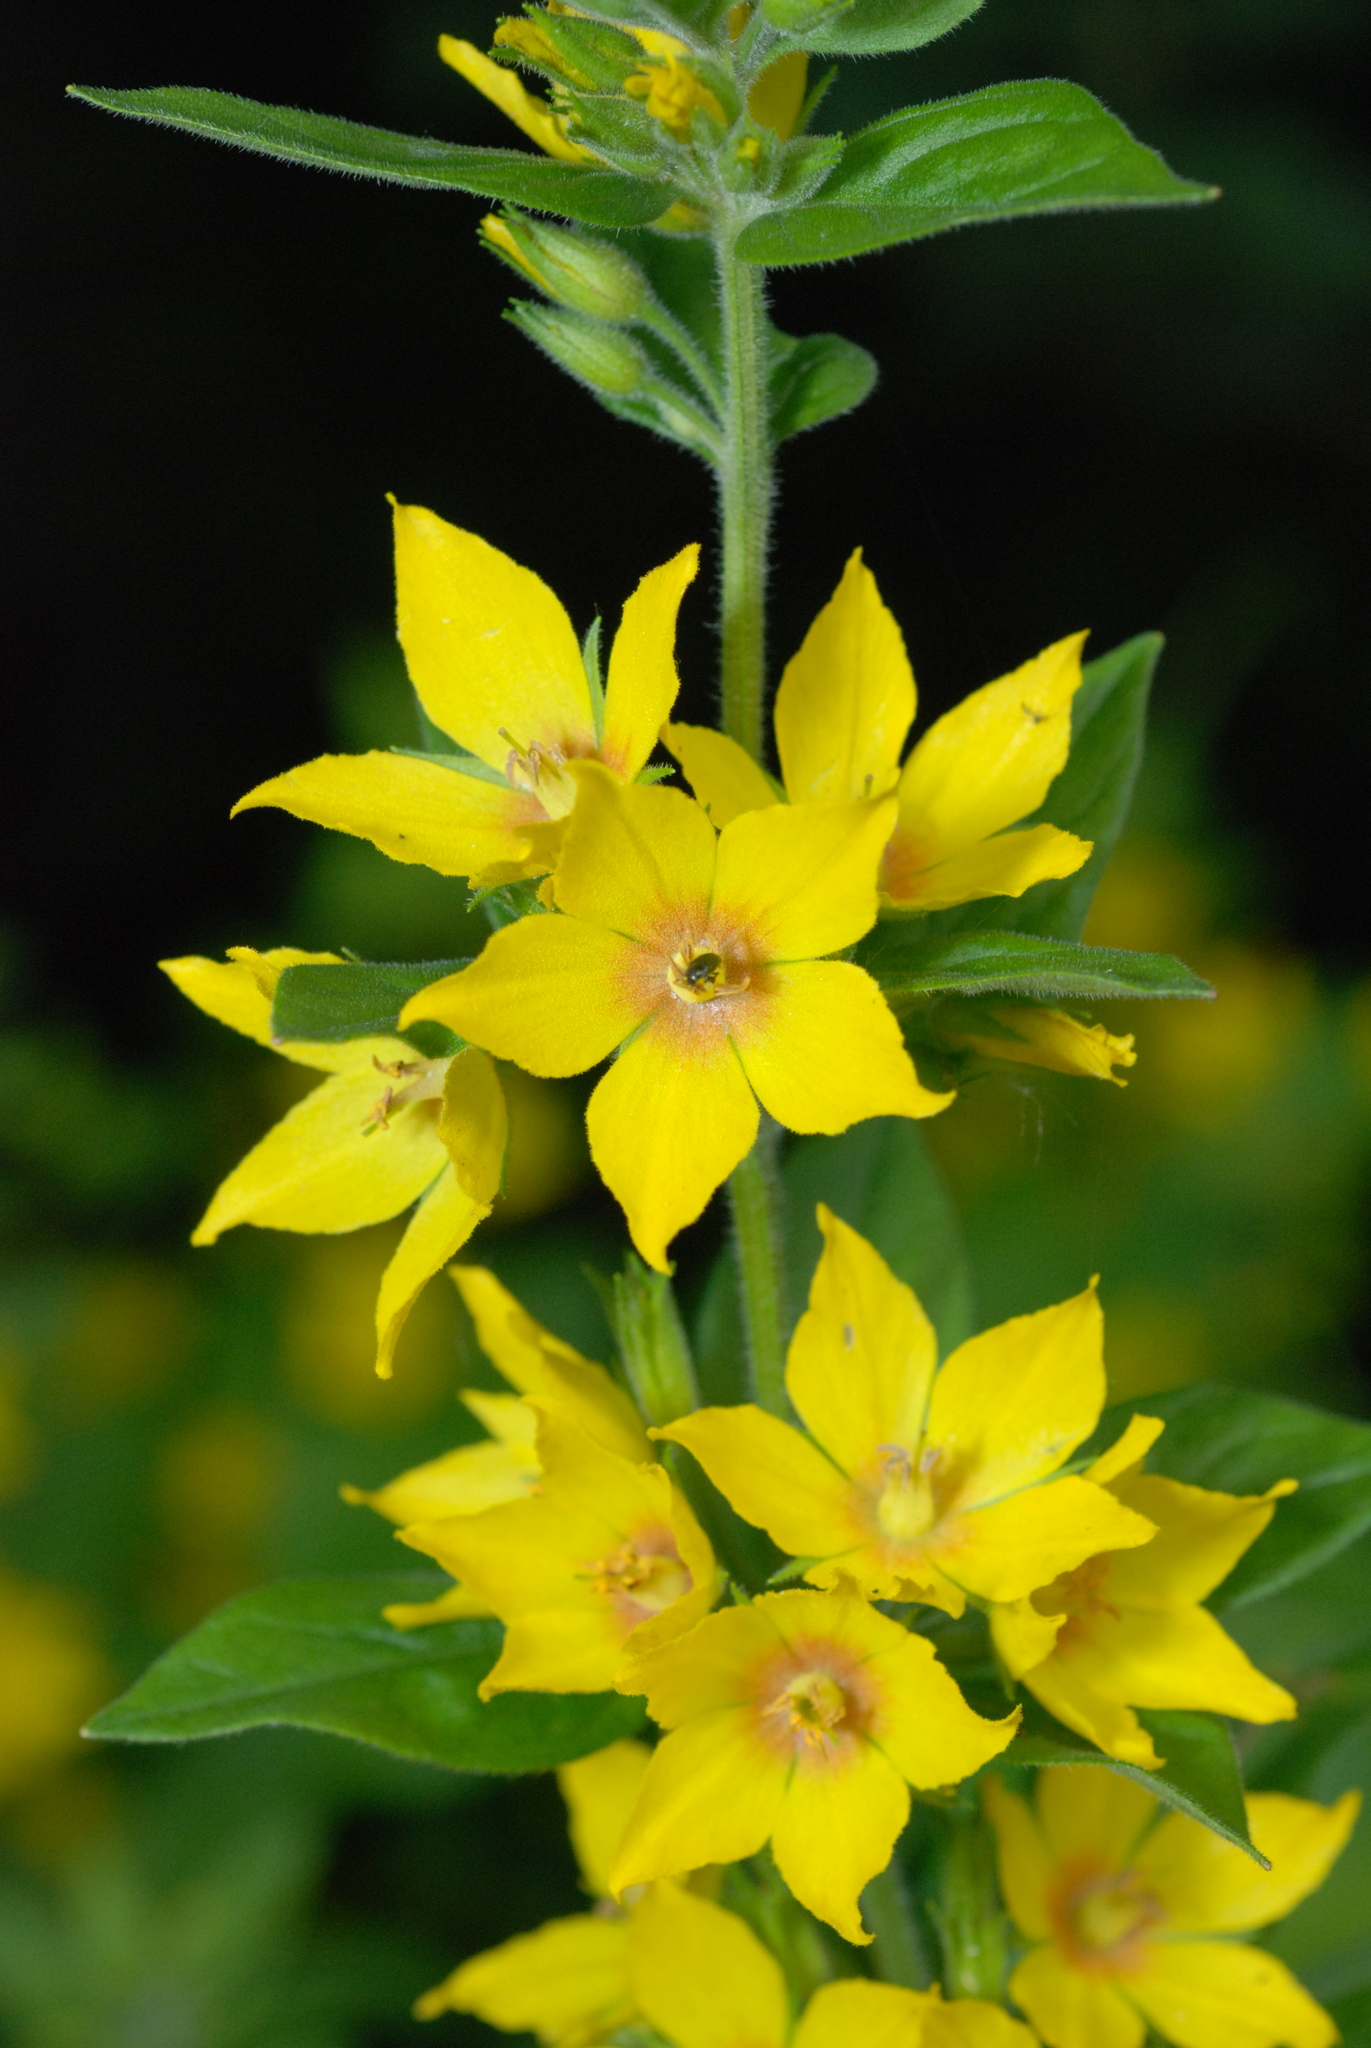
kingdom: Plantae
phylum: Tracheophyta
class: Magnoliopsida
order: Ericales
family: Primulaceae
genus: Lysimachia
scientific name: Lysimachia punctata
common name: Dotted loosestrife
